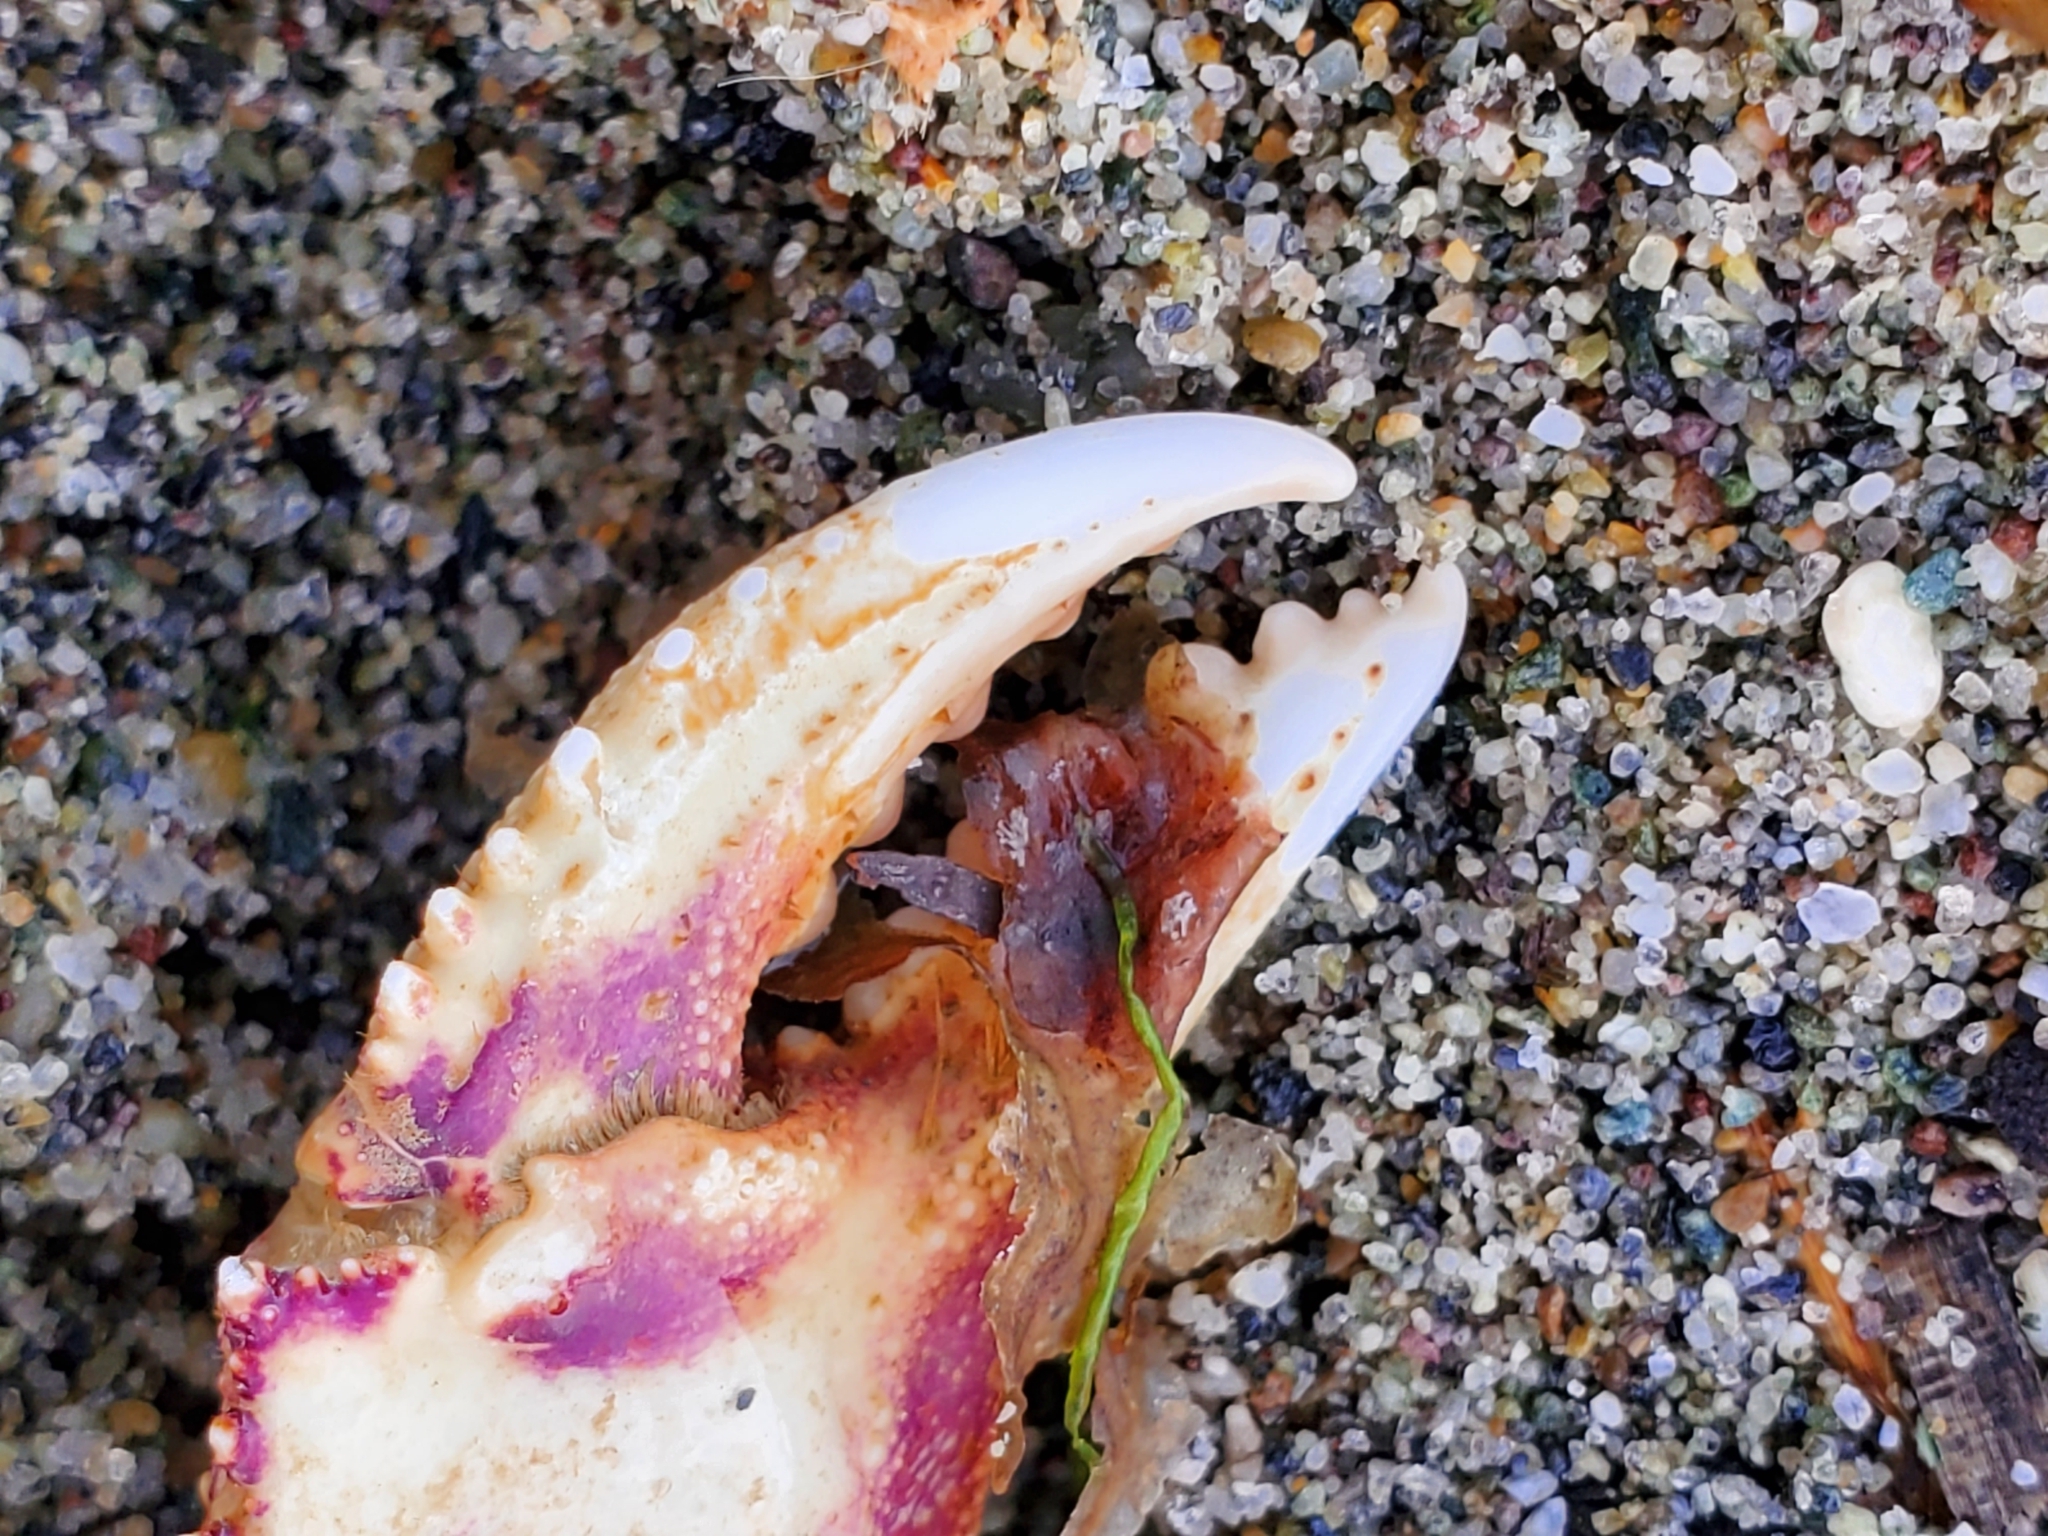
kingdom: Animalia
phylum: Arthropoda
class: Malacostraca
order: Decapoda
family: Cancridae
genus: Metacarcinus
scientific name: Metacarcinus magister
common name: Californian crab
